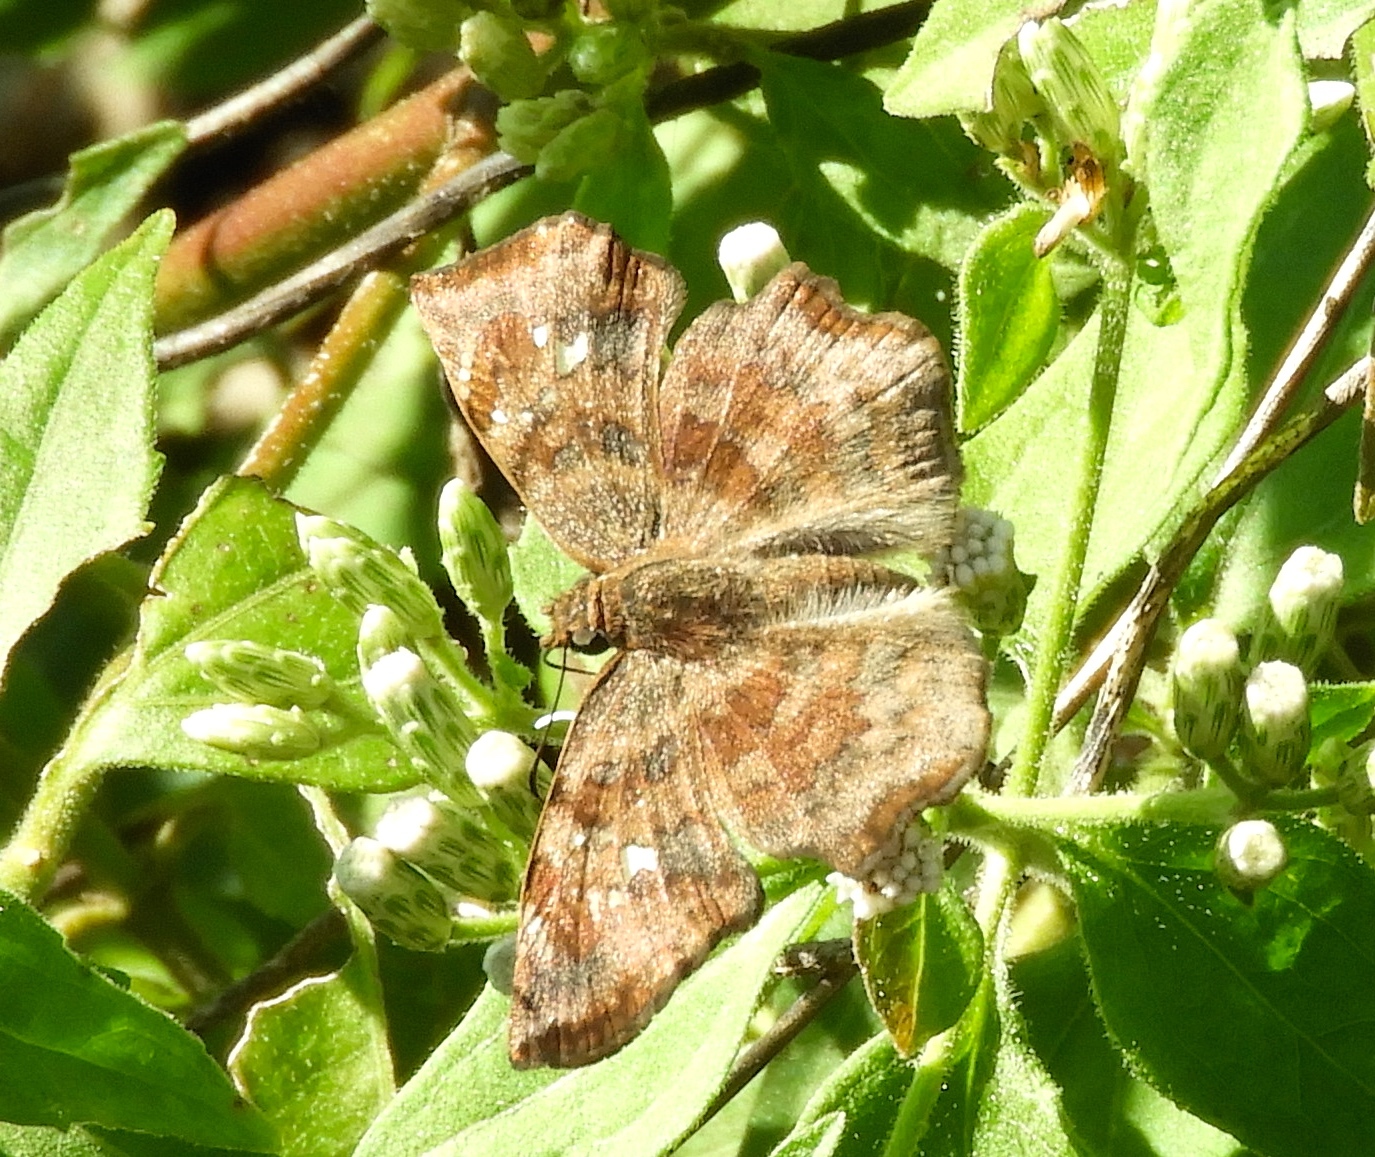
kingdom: Animalia
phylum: Arthropoda
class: Insecta
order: Lepidoptera
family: Hesperiidae
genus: Antigonus
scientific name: Antigonus erosus
